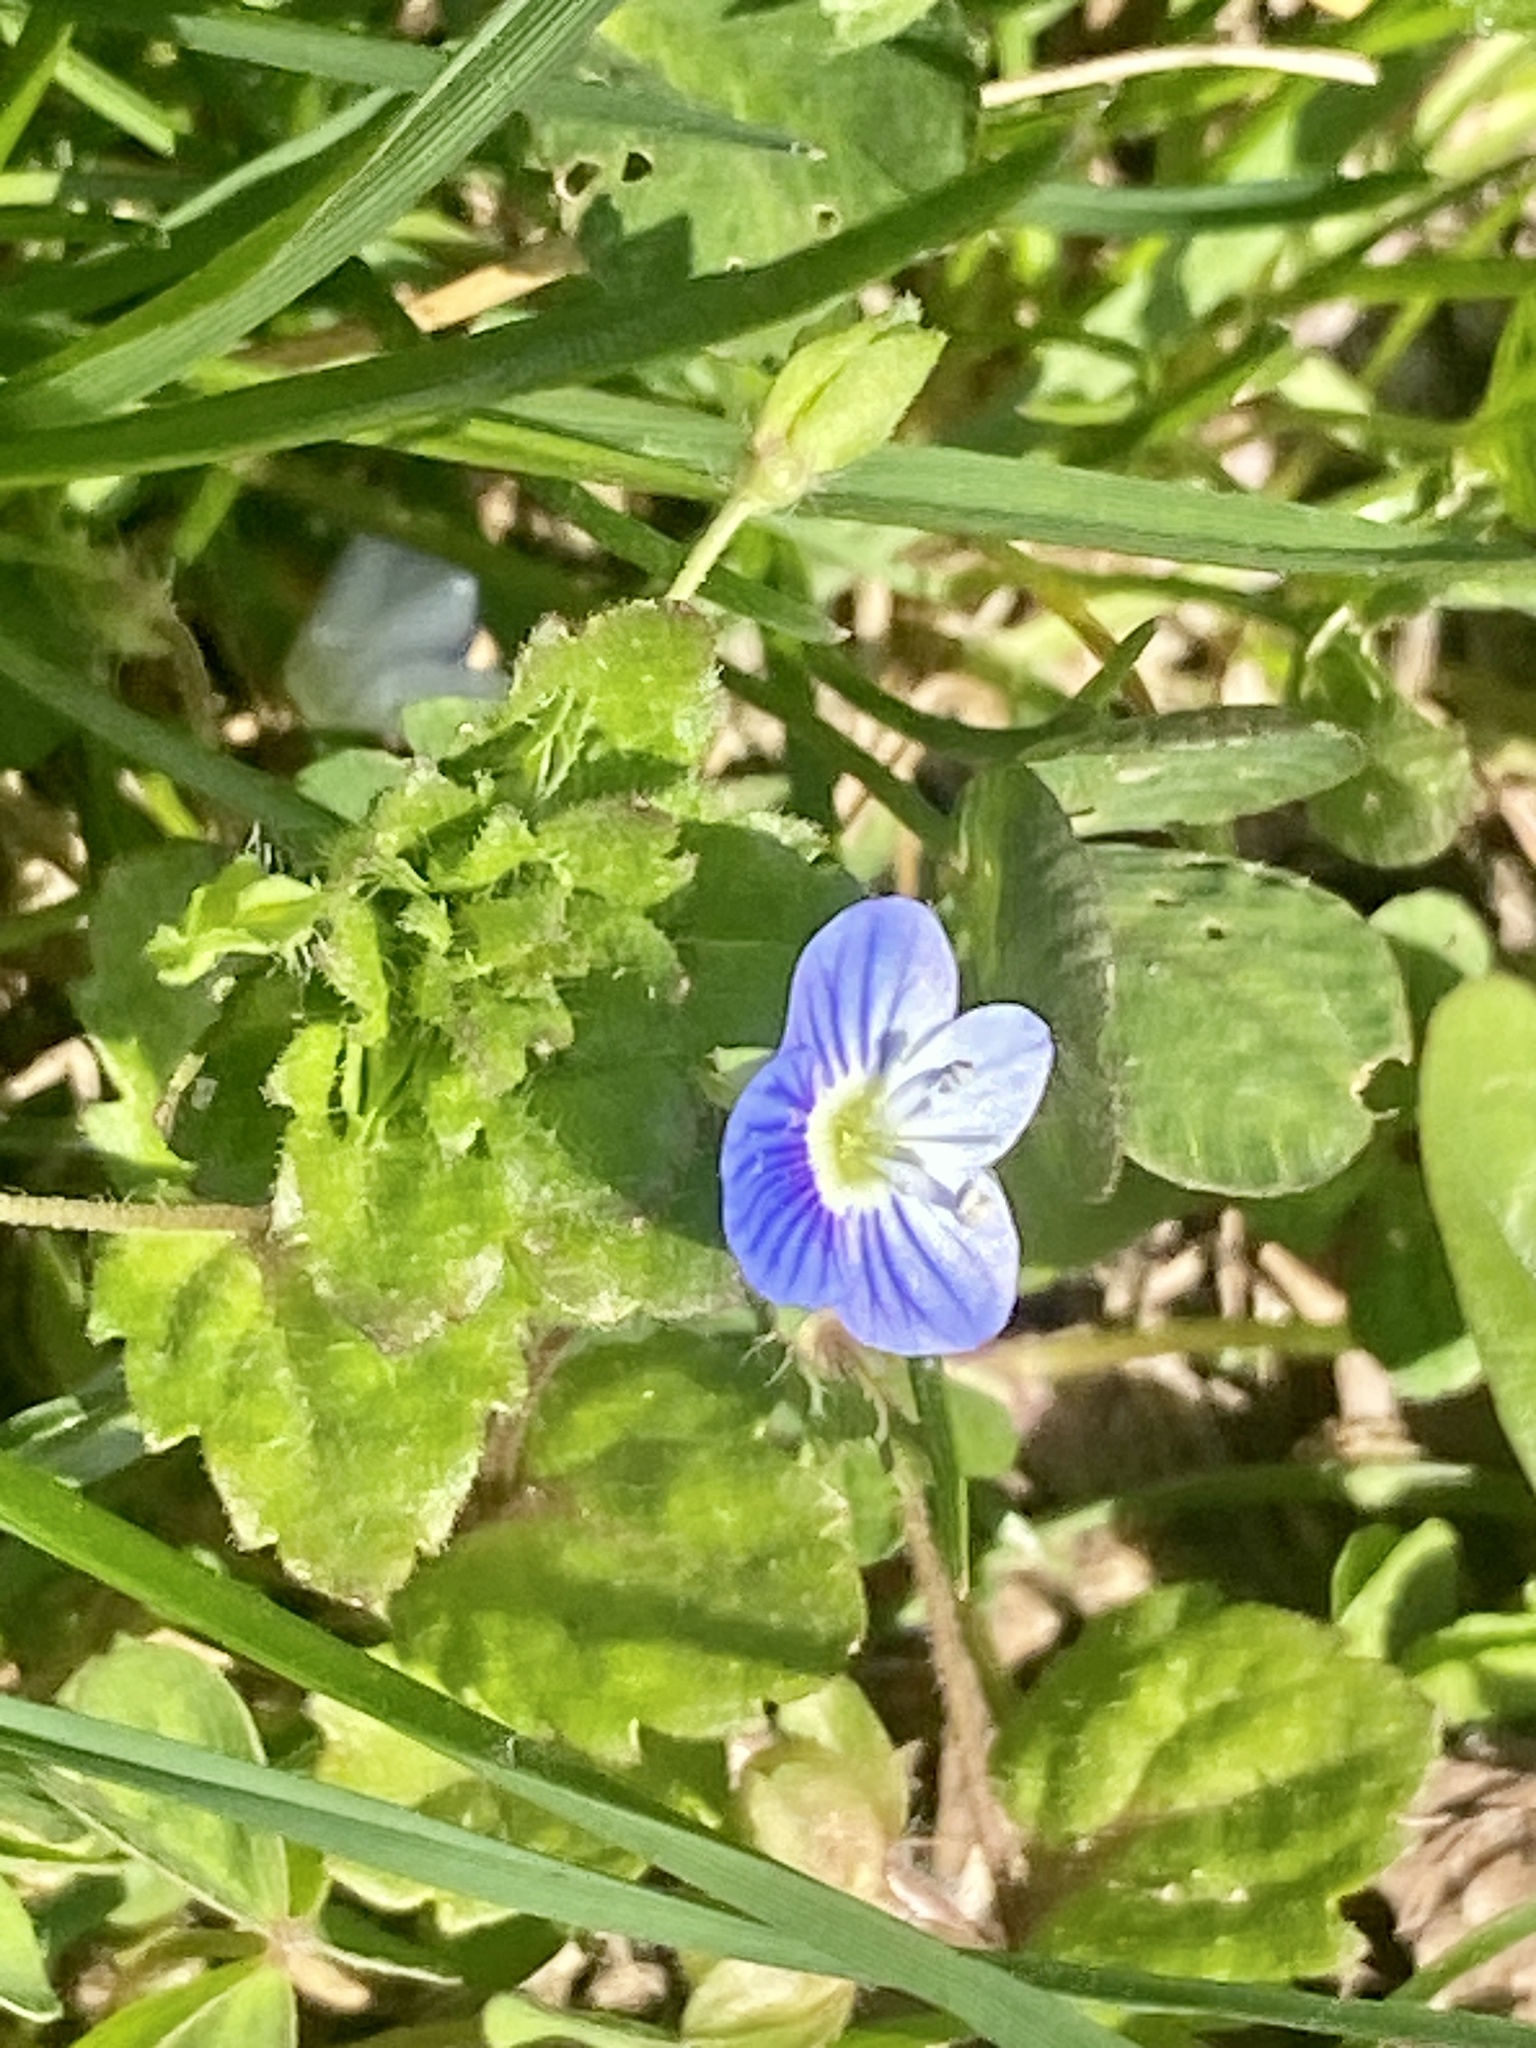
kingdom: Plantae
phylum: Tracheophyta
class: Magnoliopsida
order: Lamiales
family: Plantaginaceae
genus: Veronica
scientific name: Veronica persica
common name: Common field-speedwell
